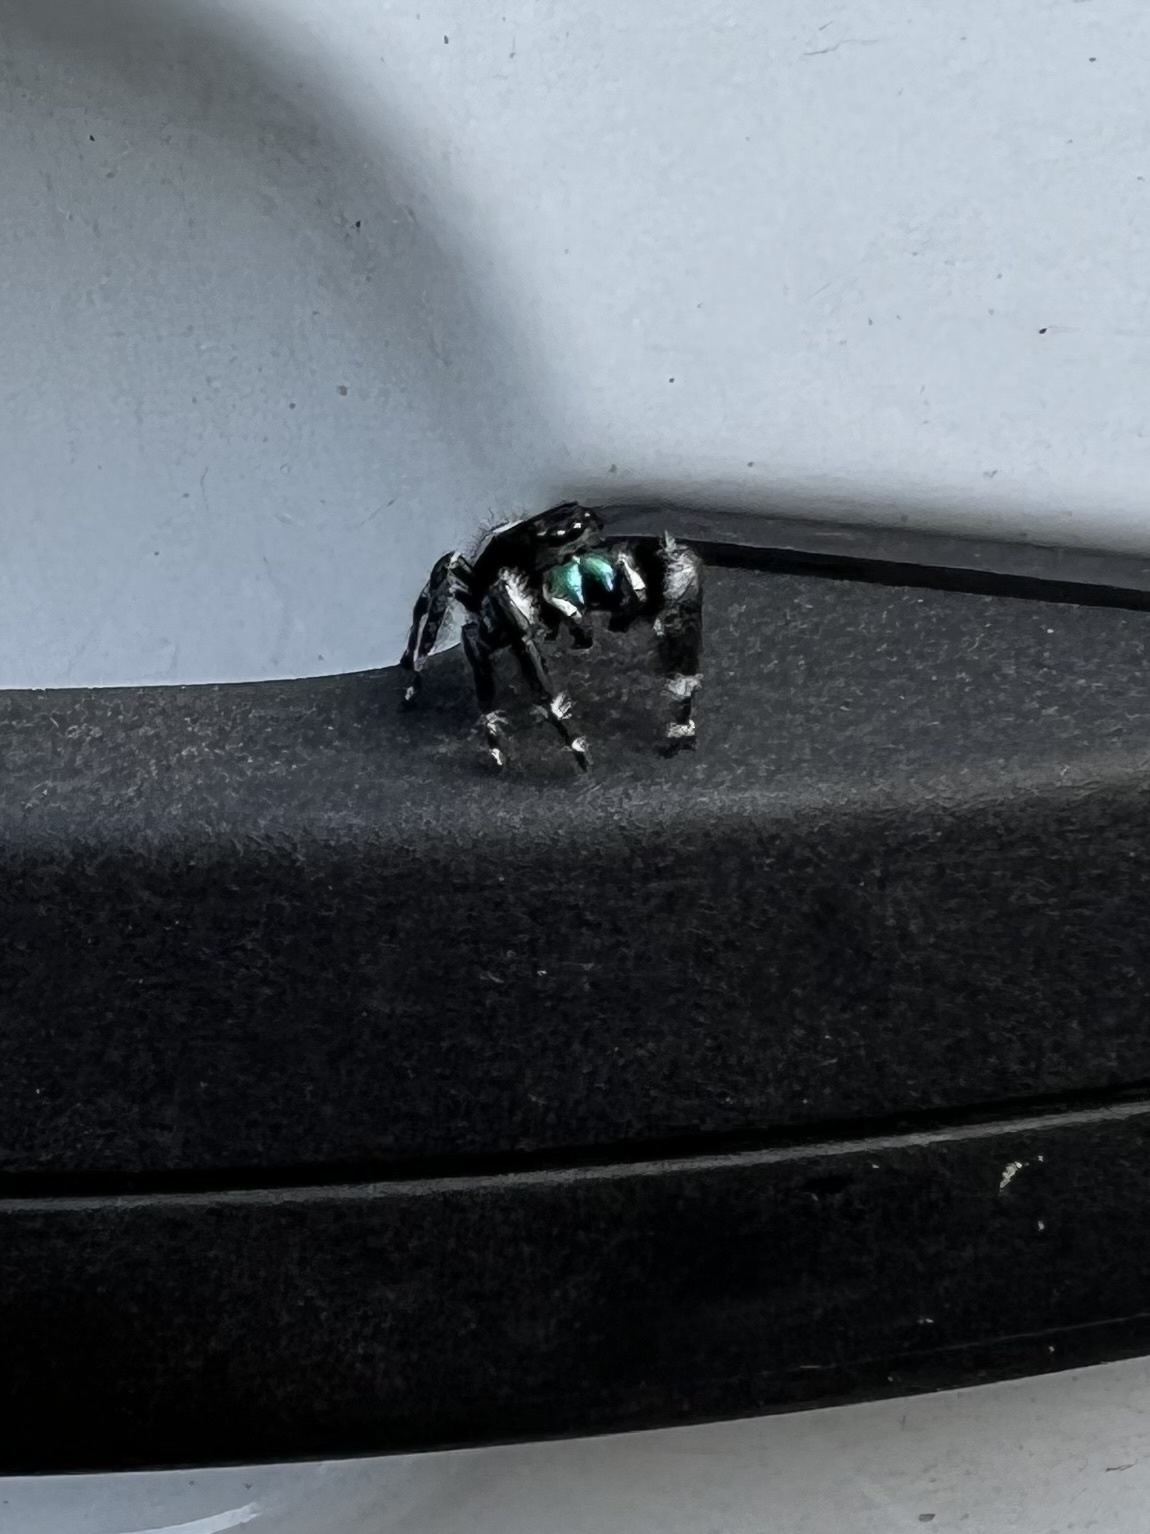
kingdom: Animalia
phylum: Arthropoda
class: Arachnida
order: Araneae
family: Salticidae
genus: Phidippus
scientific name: Phidippus audax
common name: Bold jumper
